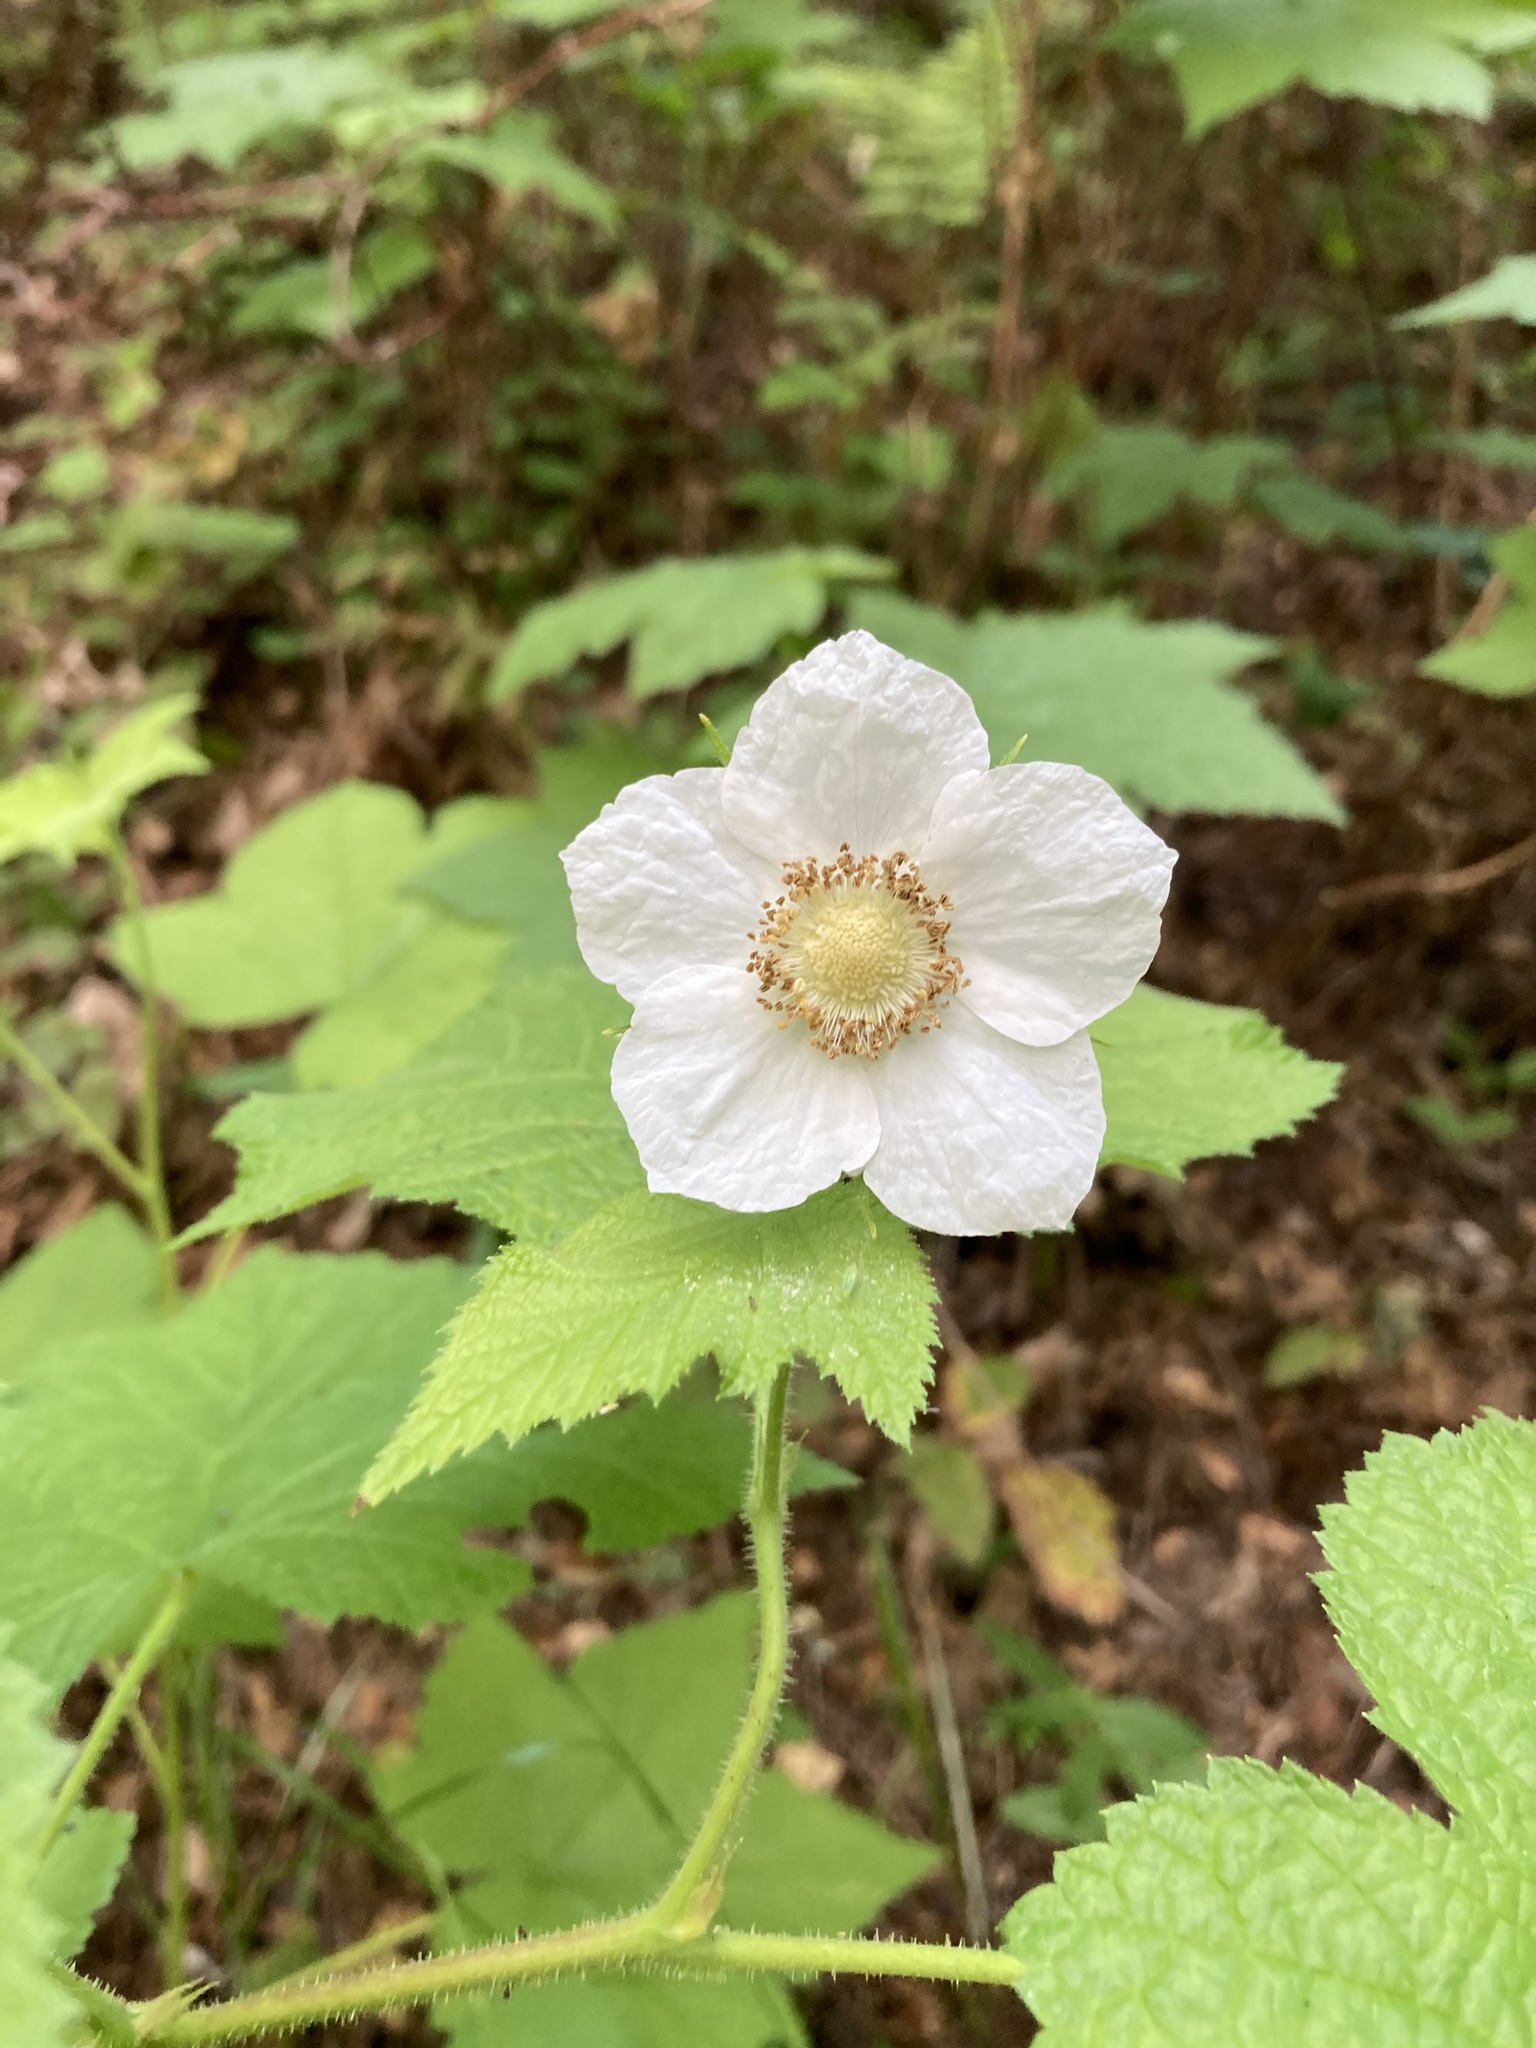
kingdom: Plantae
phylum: Tracheophyta
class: Magnoliopsida
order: Rosales
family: Rosaceae
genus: Rubus
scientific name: Rubus parviflorus
